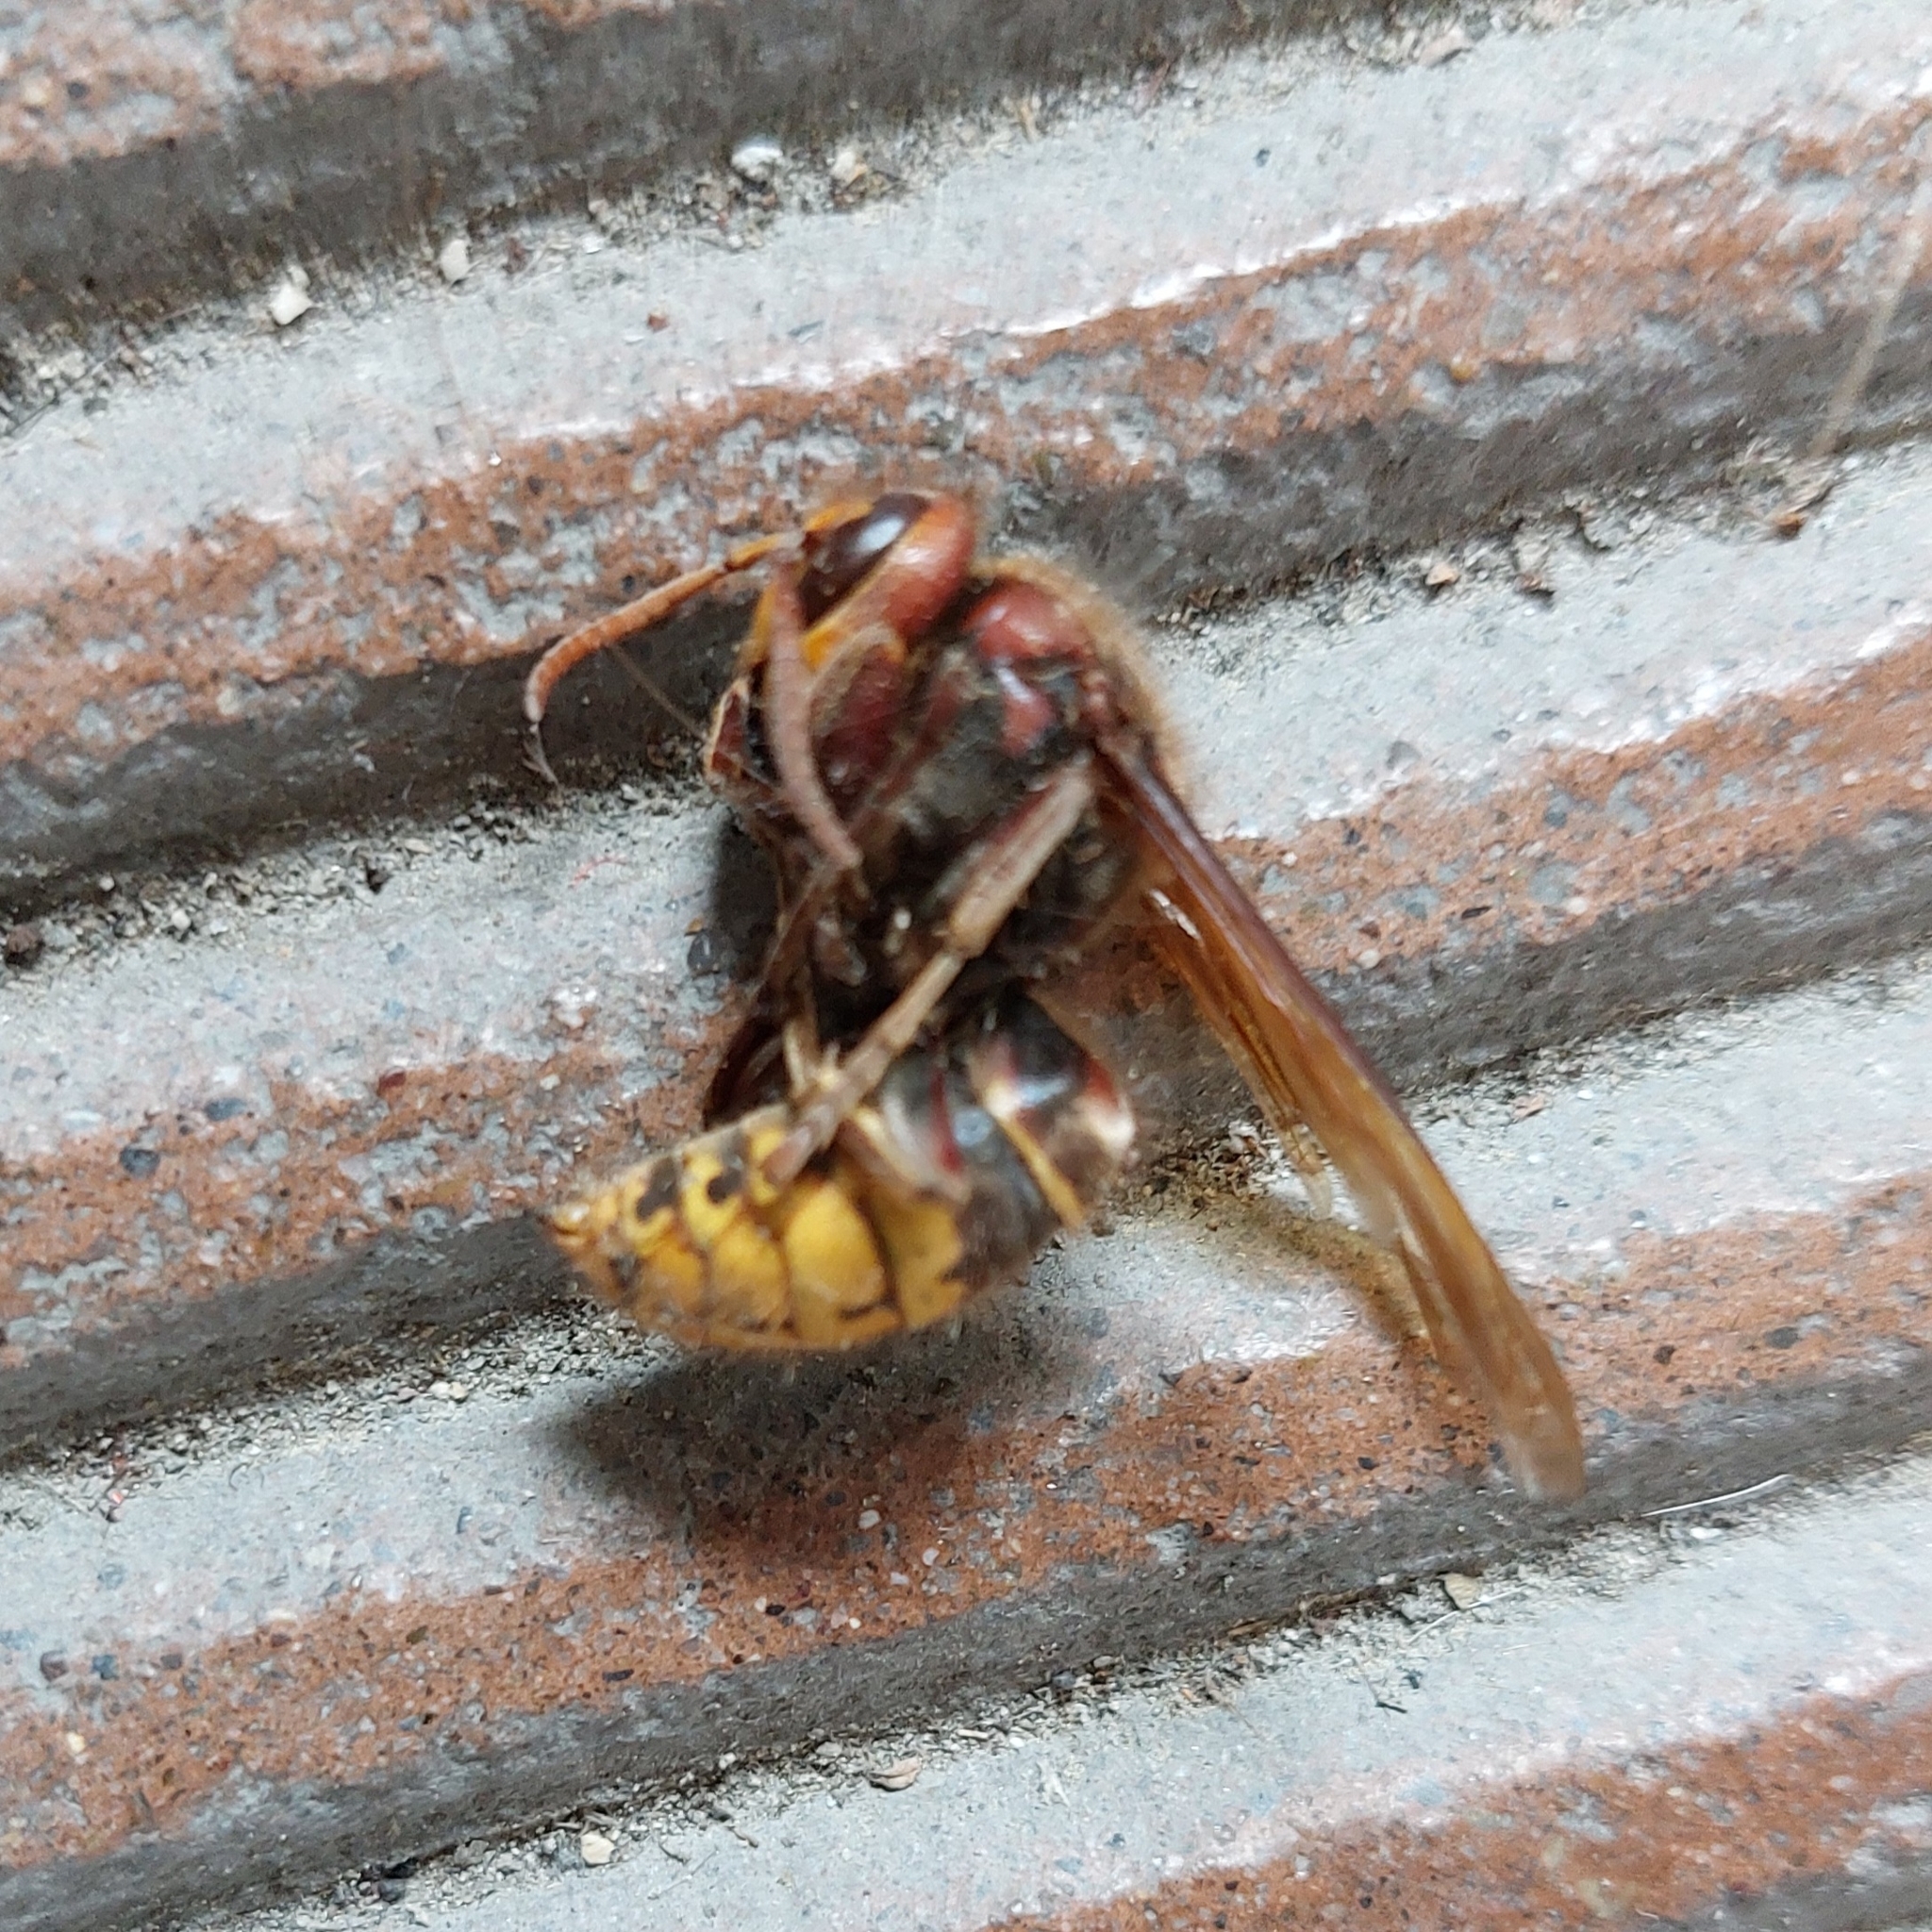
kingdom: Animalia
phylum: Arthropoda
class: Insecta
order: Hymenoptera
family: Vespidae
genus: Vespa
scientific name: Vespa crabro
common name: Hornet
